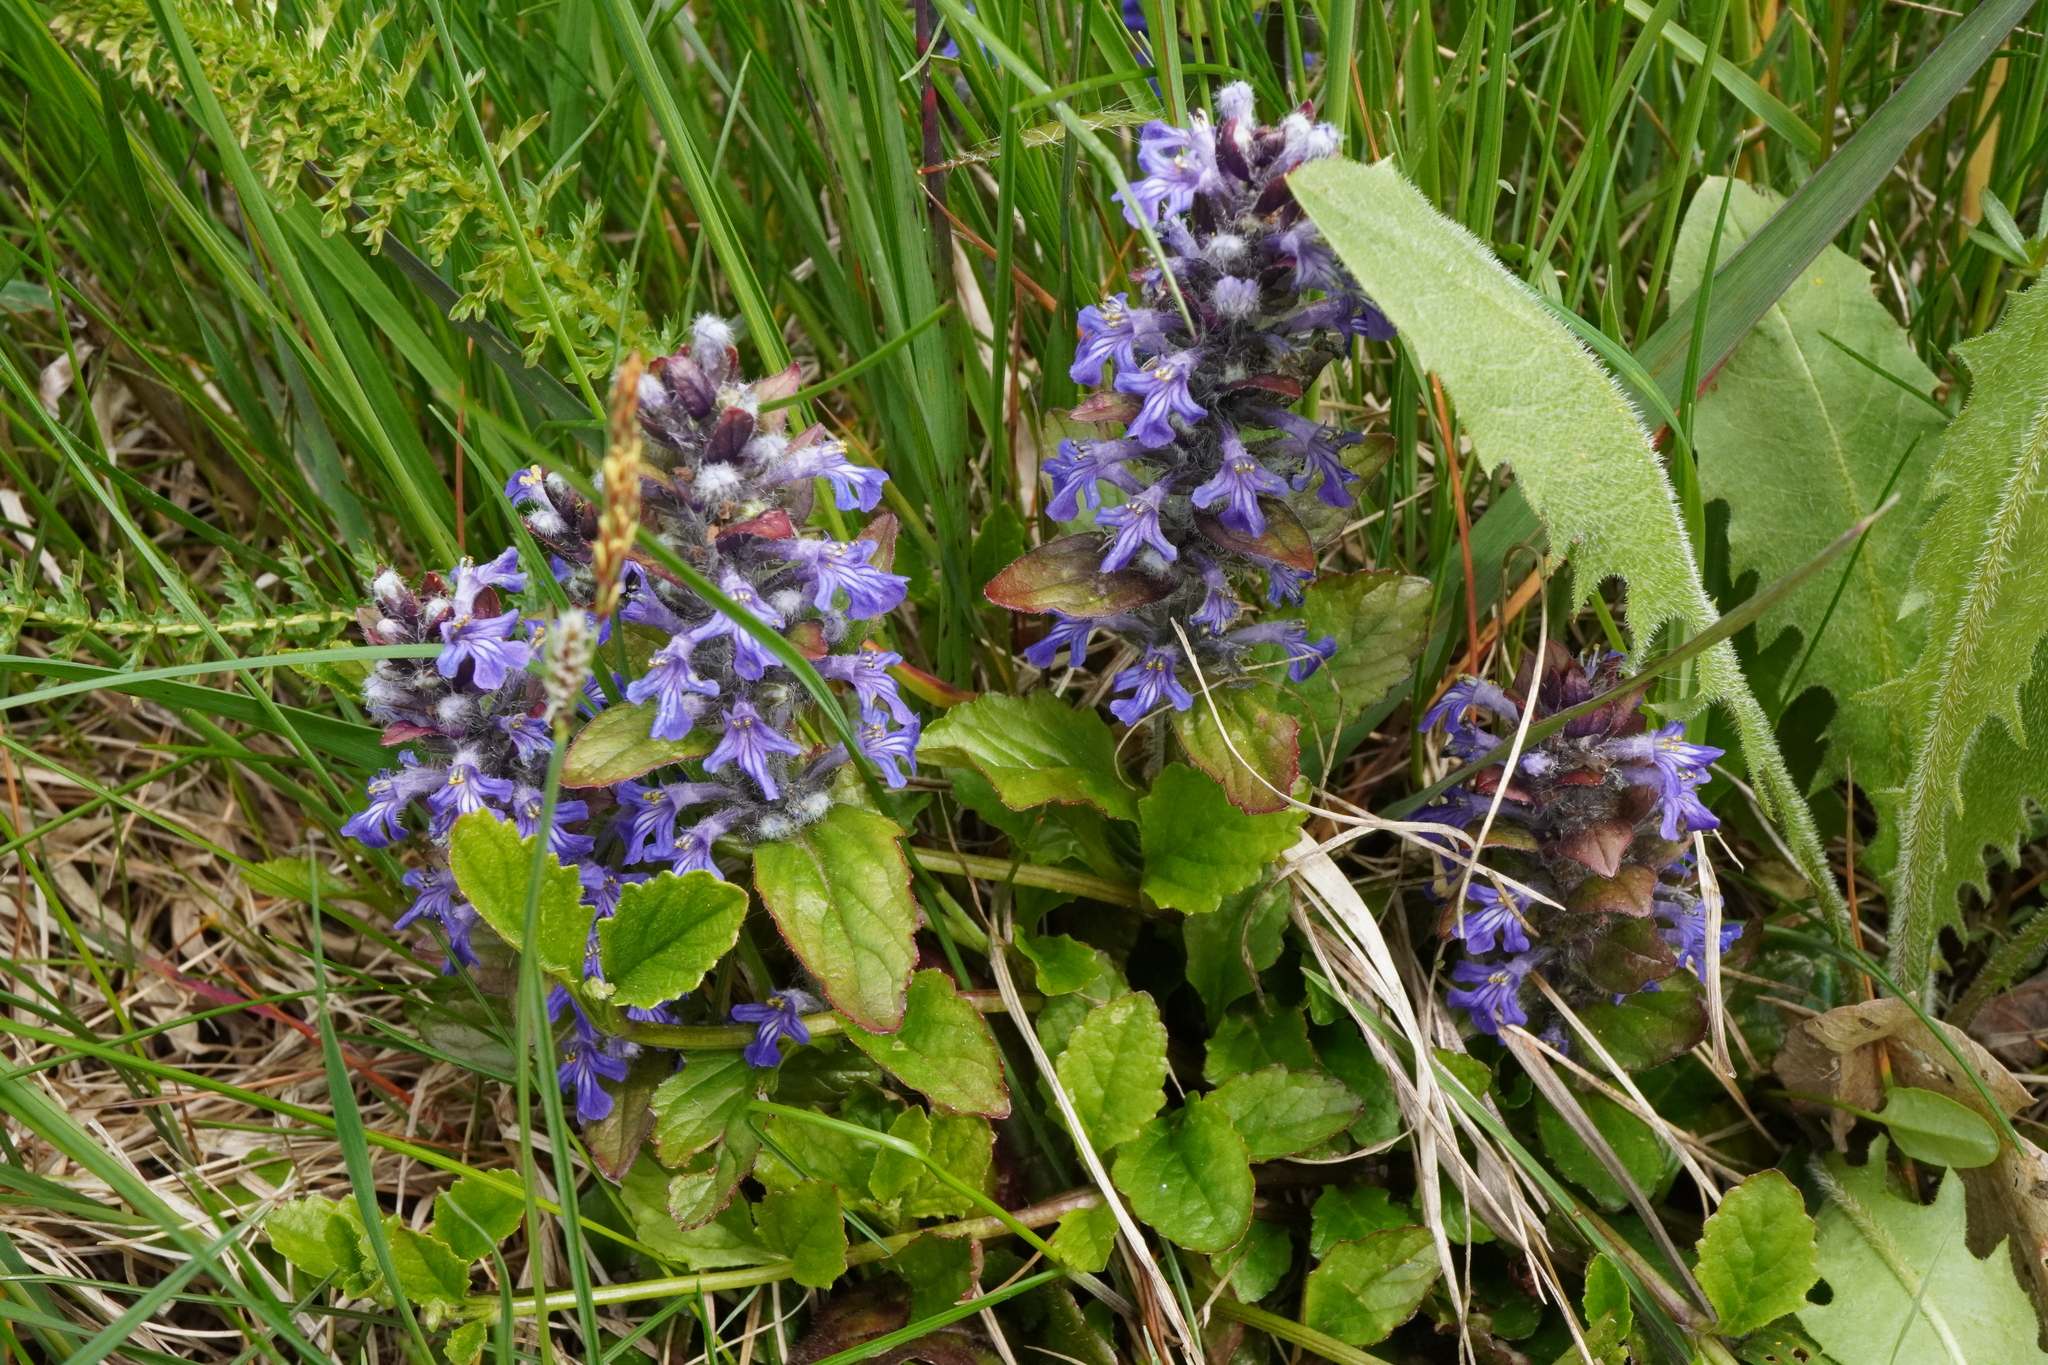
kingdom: Plantae
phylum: Tracheophyta
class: Magnoliopsida
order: Lamiales
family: Lamiaceae
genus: Ajuga
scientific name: Ajuga reptans
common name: Bugle
